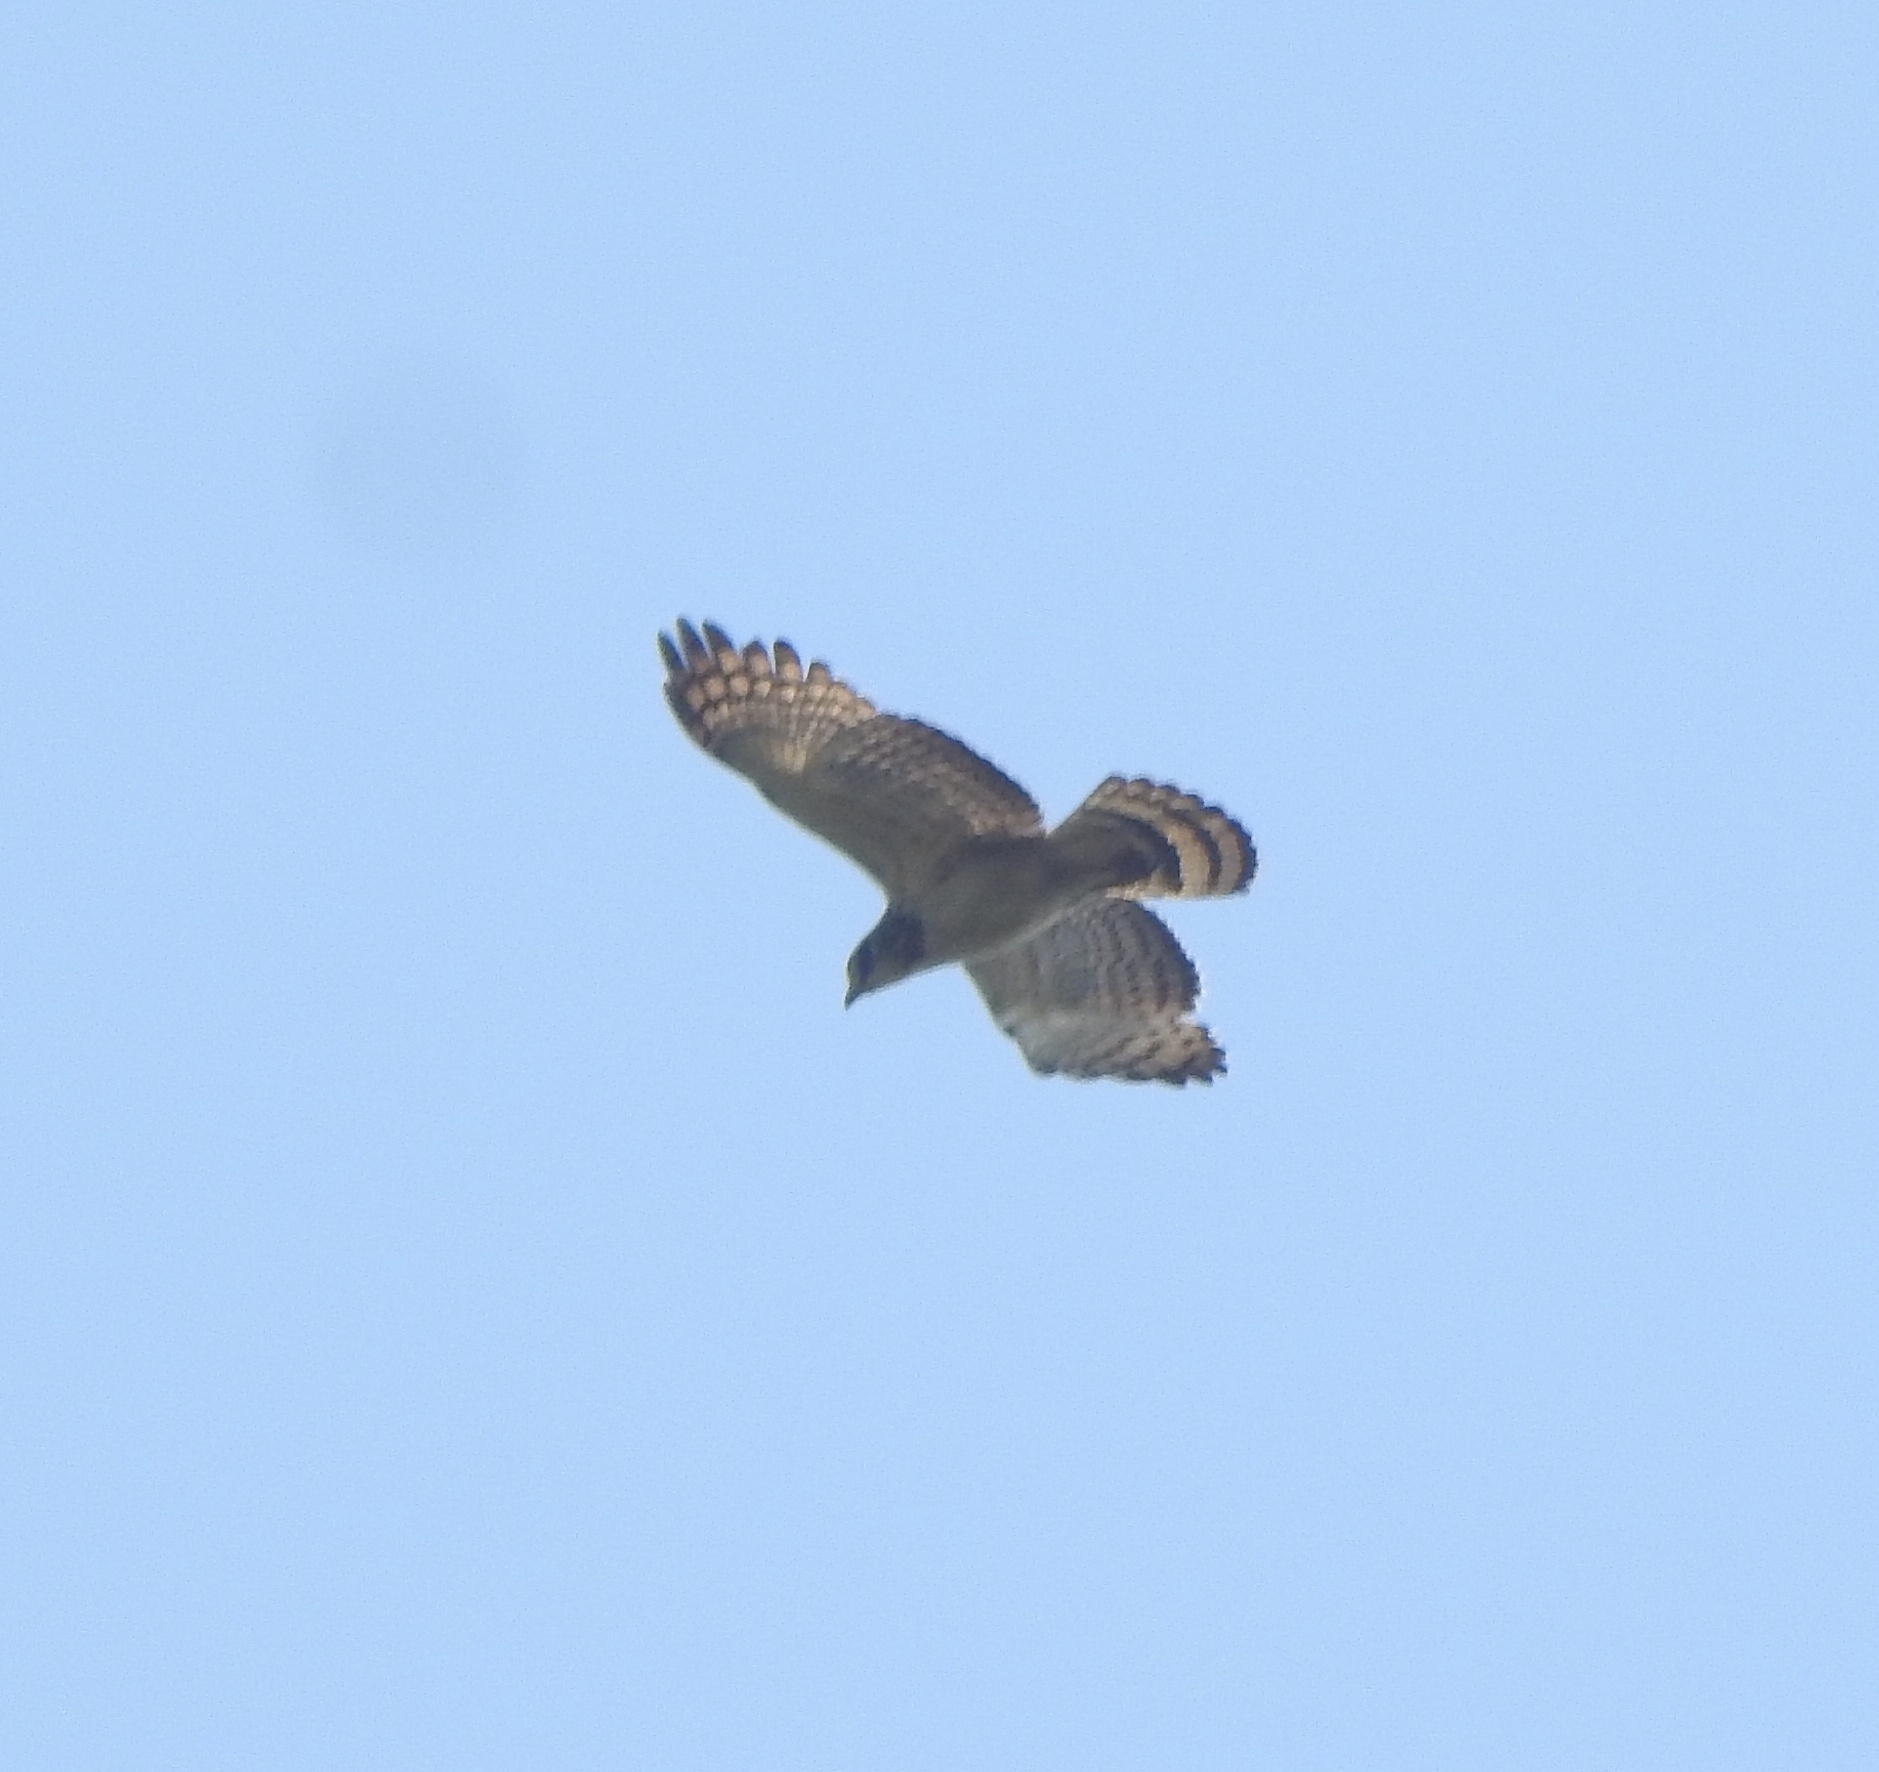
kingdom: Animalia
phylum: Chordata
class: Aves
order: Accipitriformes
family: Accipitridae
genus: Pernis
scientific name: Pernis ptilorhynchus
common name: Crested honey buzzard
